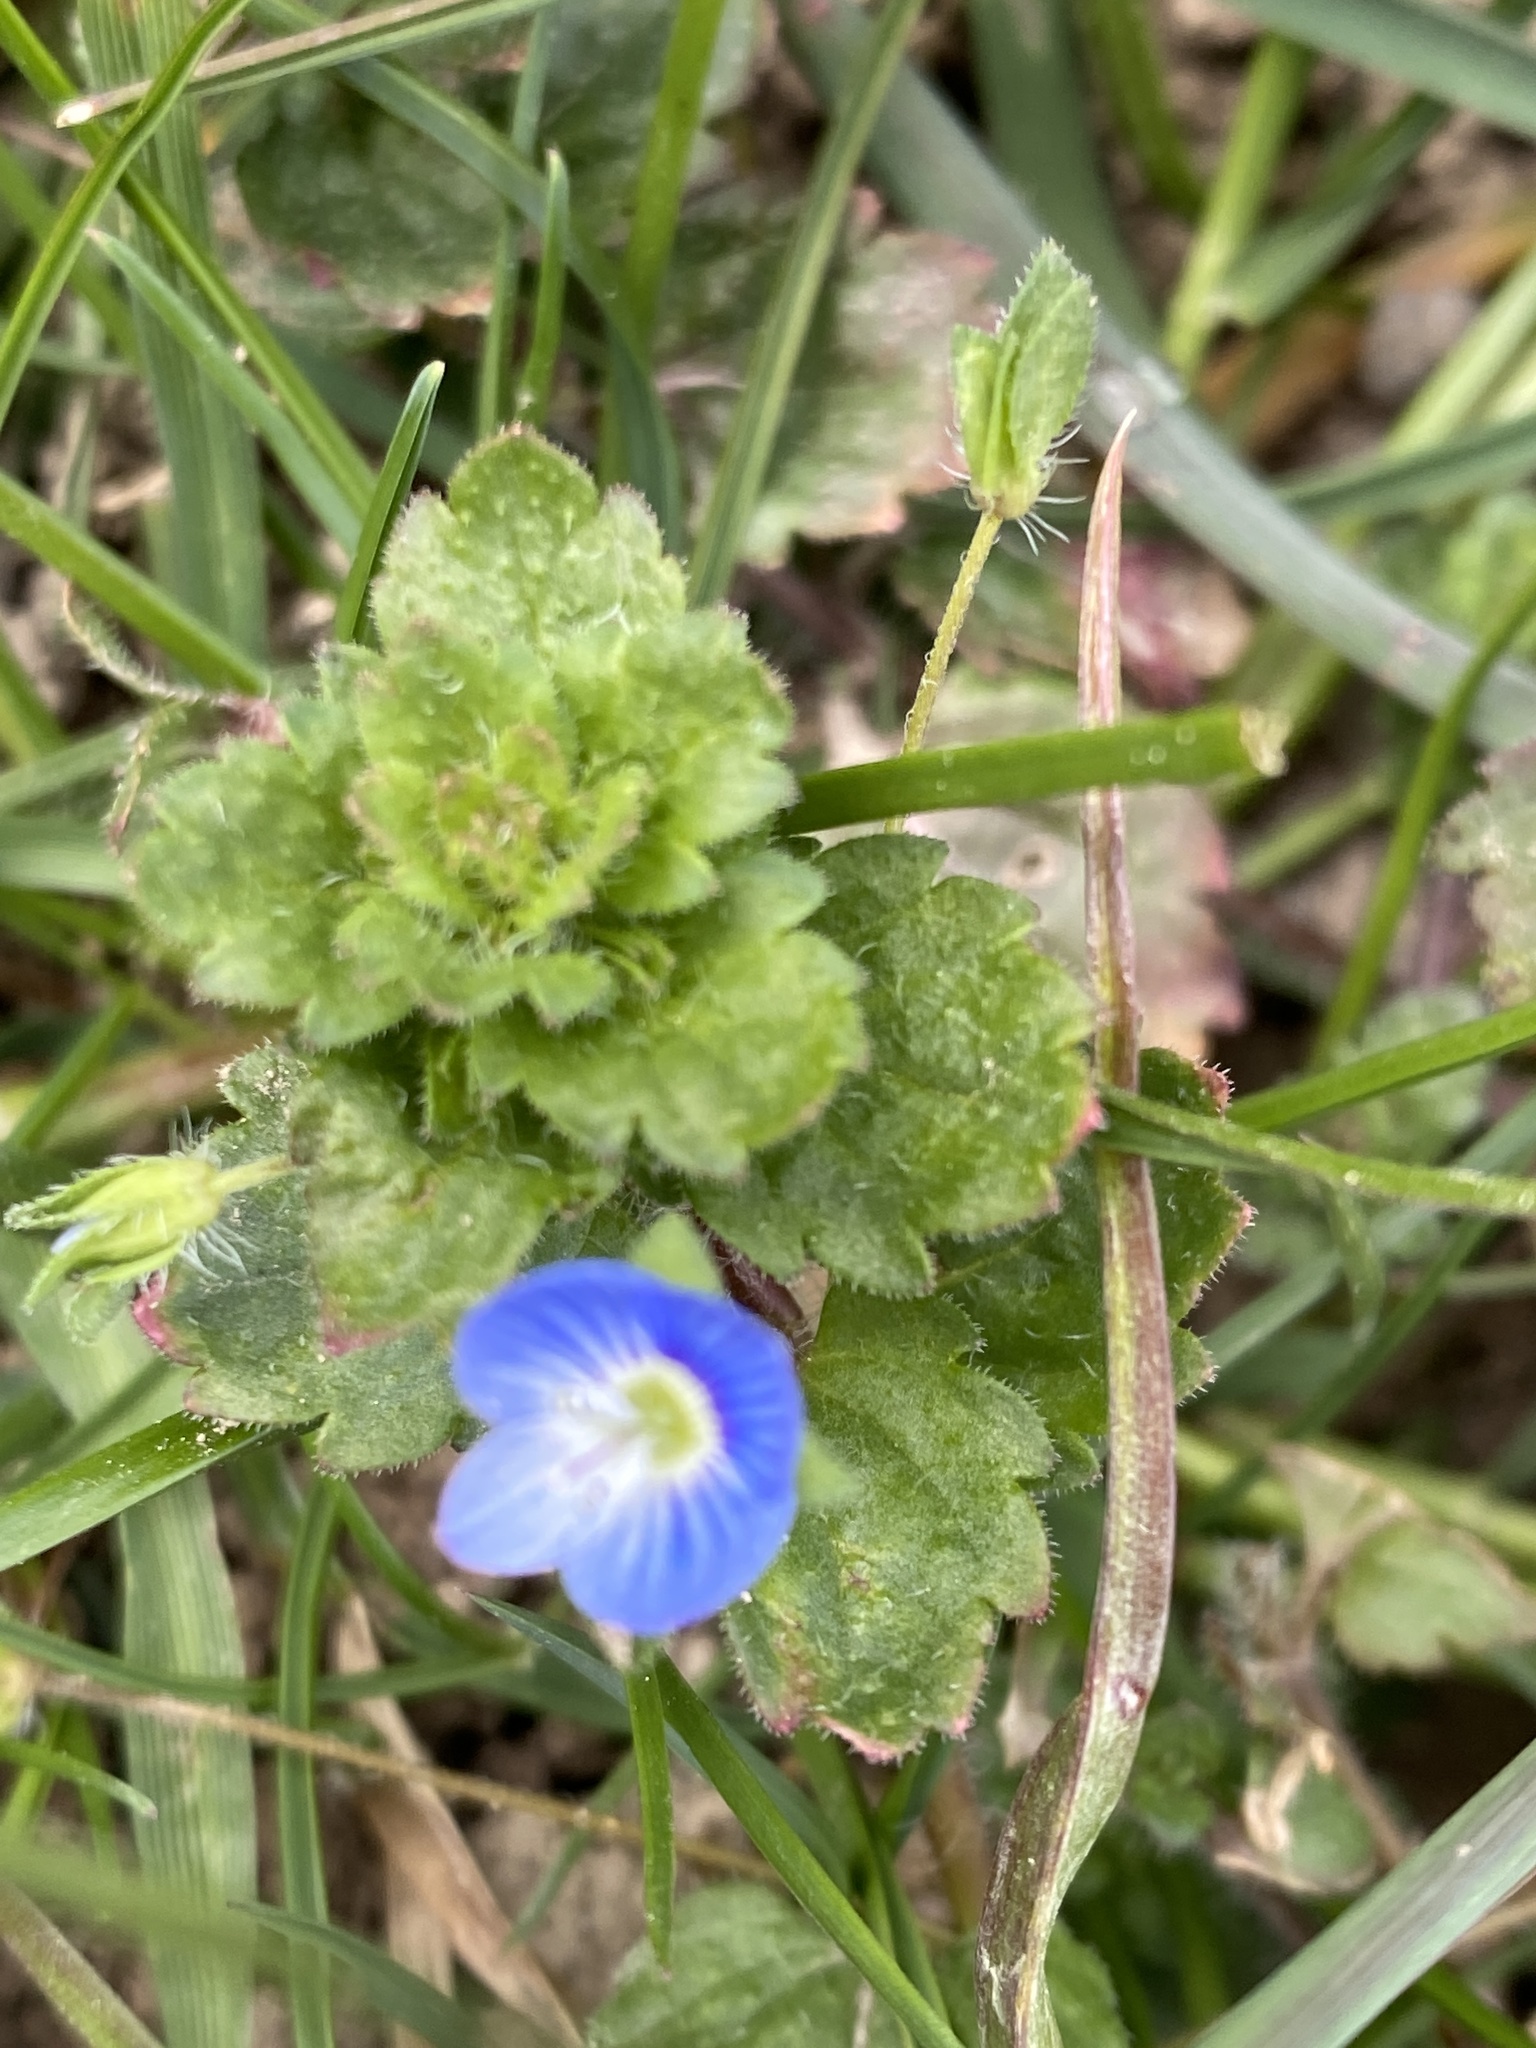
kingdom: Plantae
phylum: Tracheophyta
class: Magnoliopsida
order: Lamiales
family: Plantaginaceae
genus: Veronica
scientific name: Veronica persica
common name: Common field-speedwell
